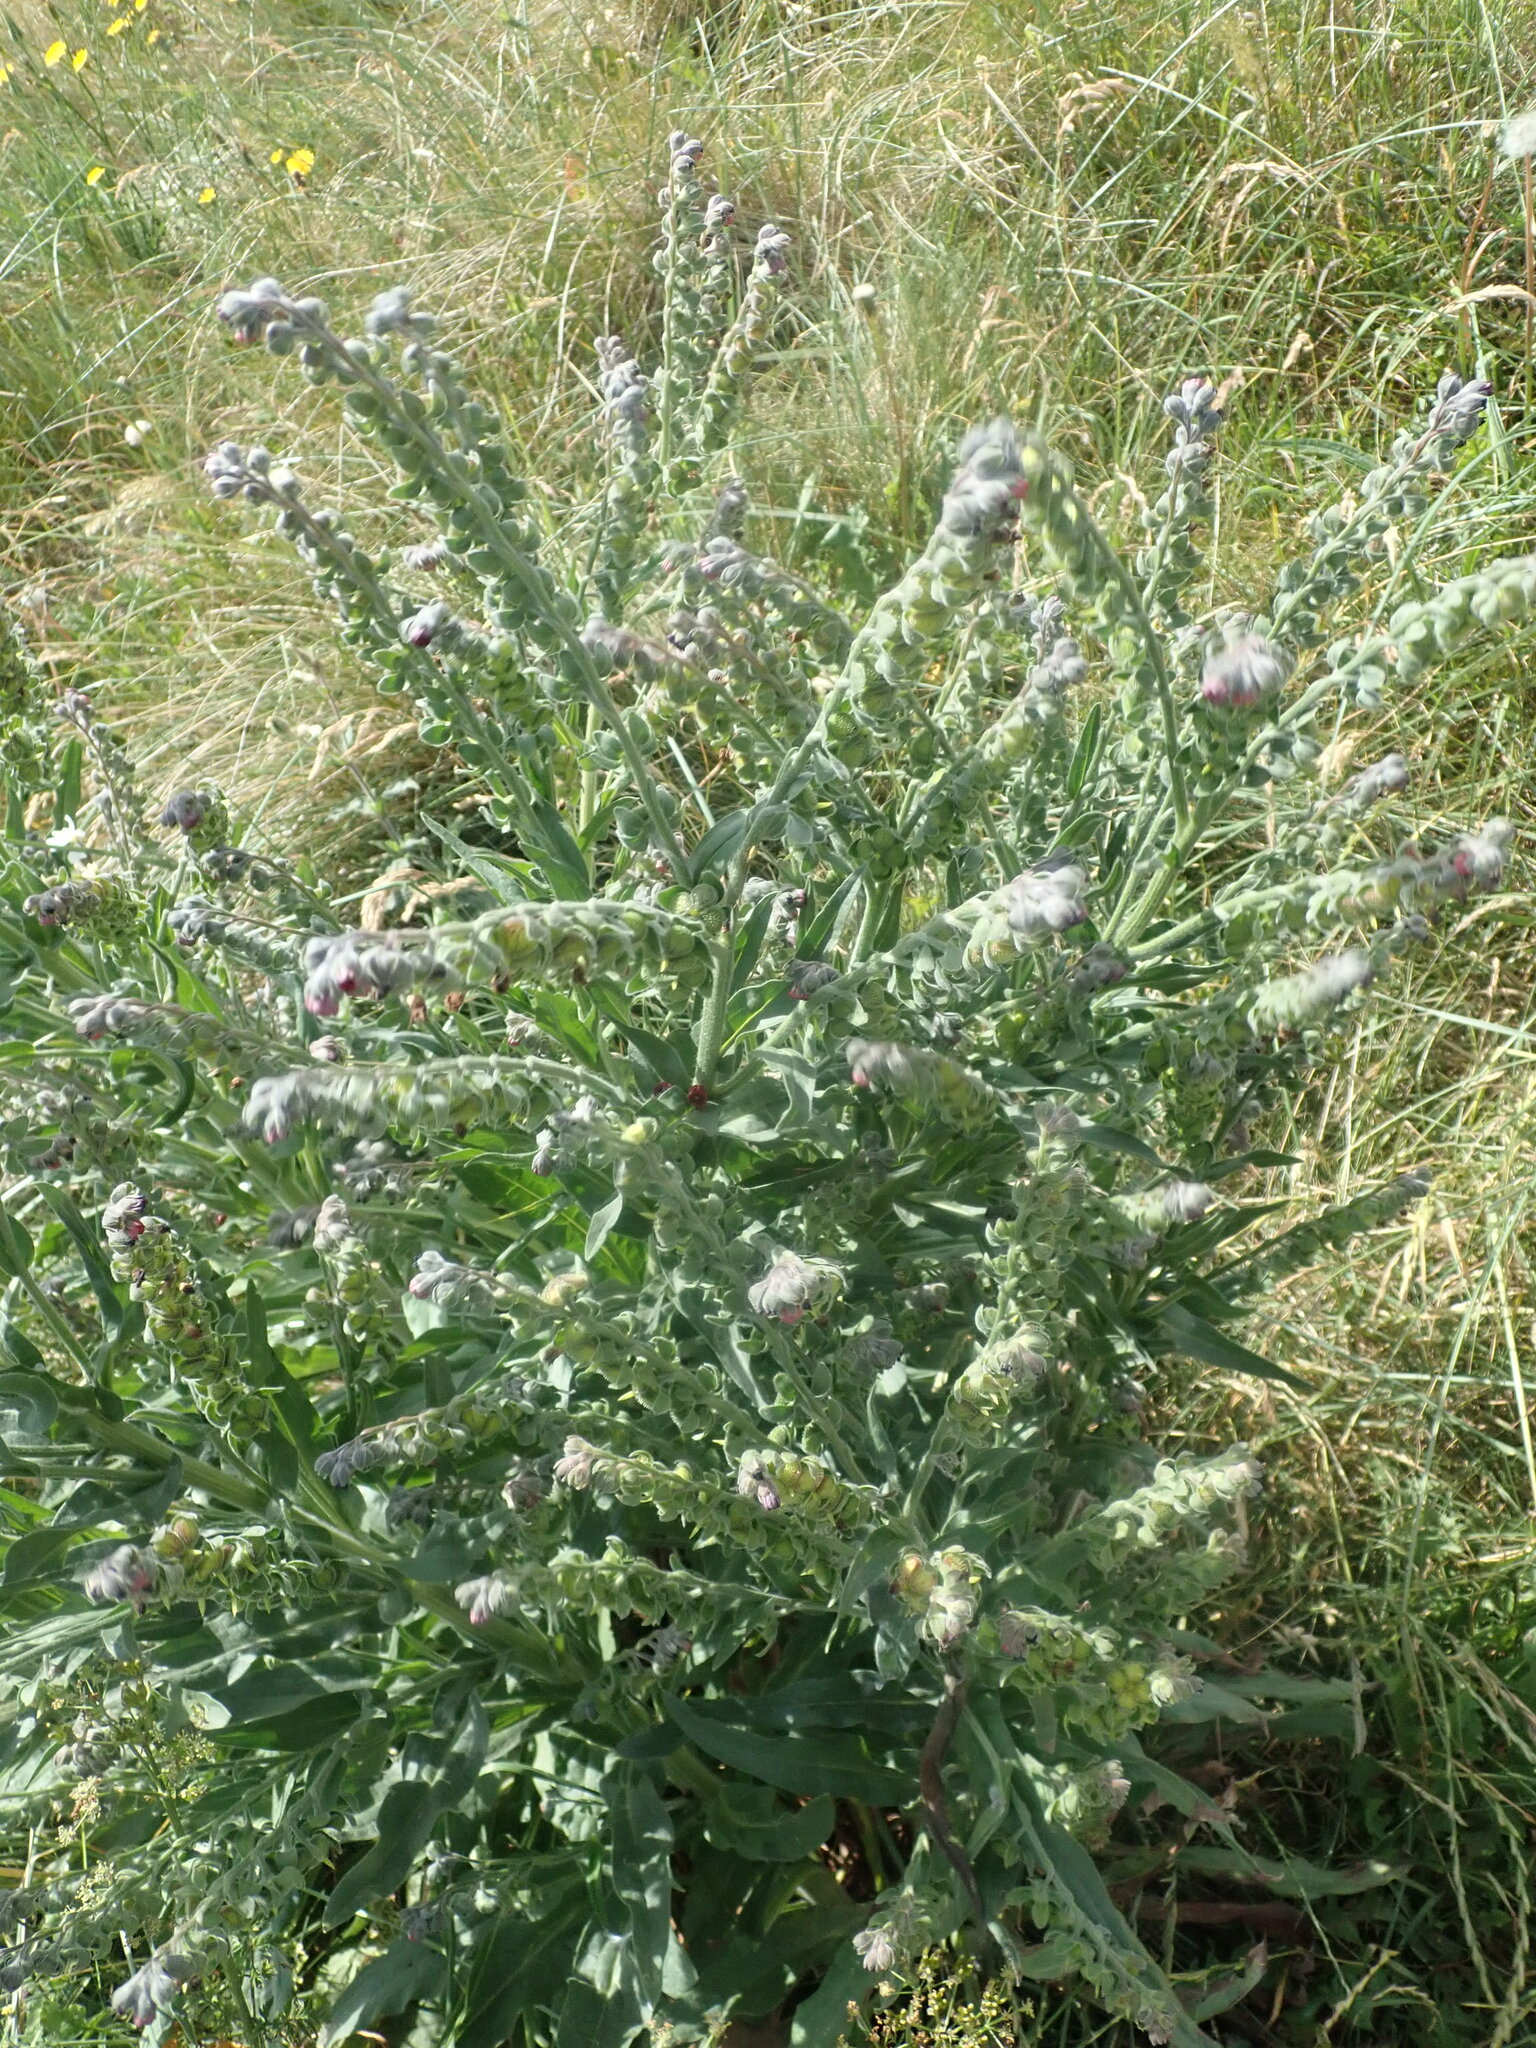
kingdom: Plantae
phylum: Tracheophyta
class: Magnoliopsida
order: Boraginales
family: Boraginaceae
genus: Cynoglossum
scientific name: Cynoglossum officinale
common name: Hound's-tongue
